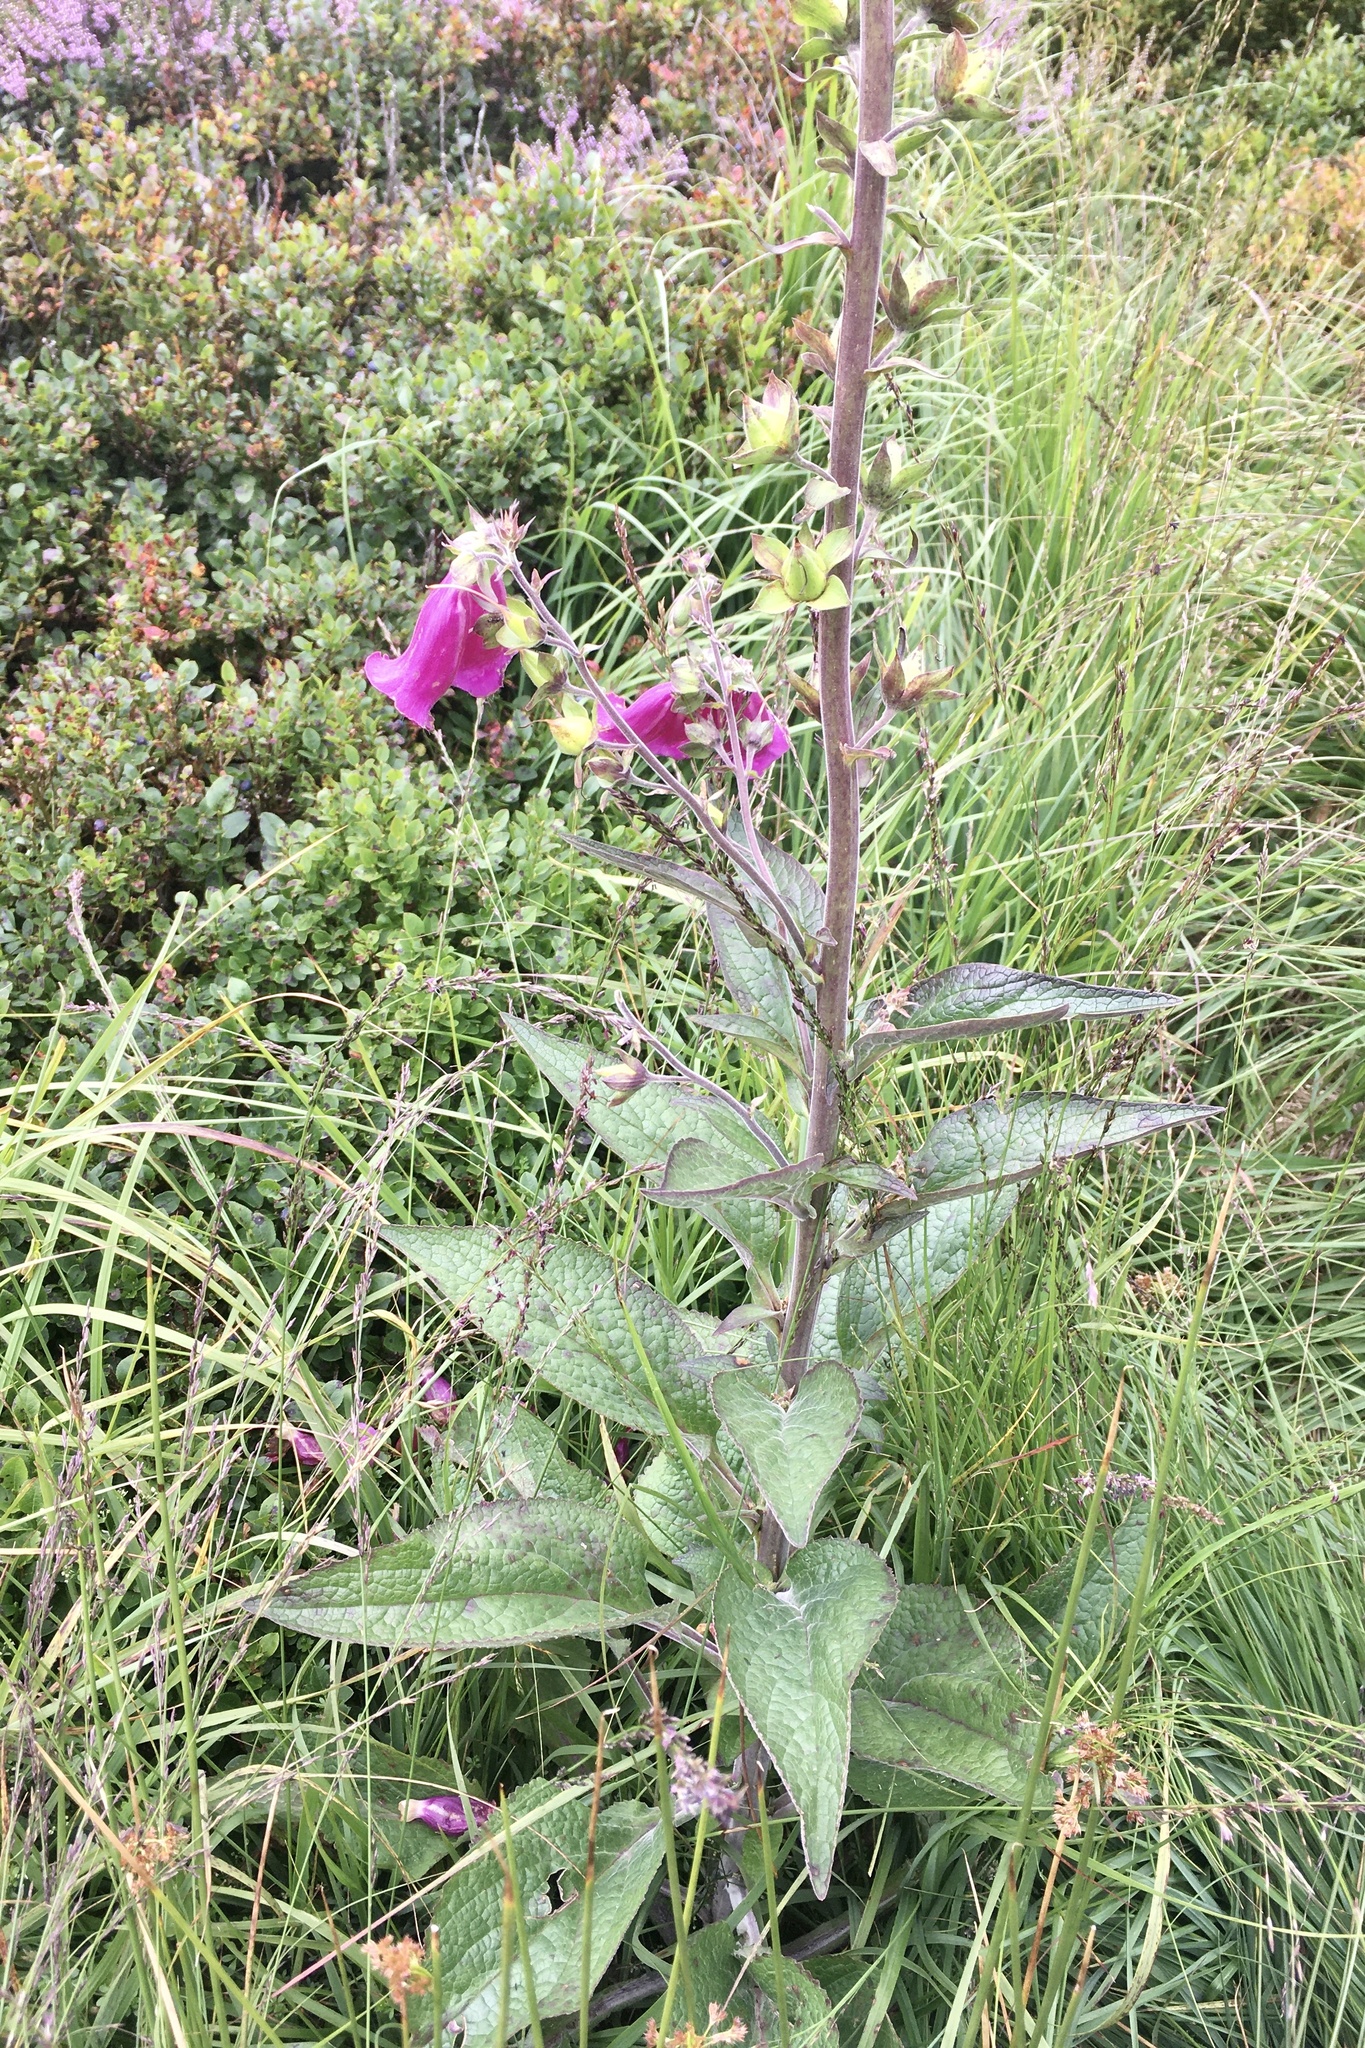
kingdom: Plantae
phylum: Tracheophyta
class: Magnoliopsida
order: Lamiales
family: Plantaginaceae
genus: Digitalis
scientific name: Digitalis purpurea
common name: Foxglove
